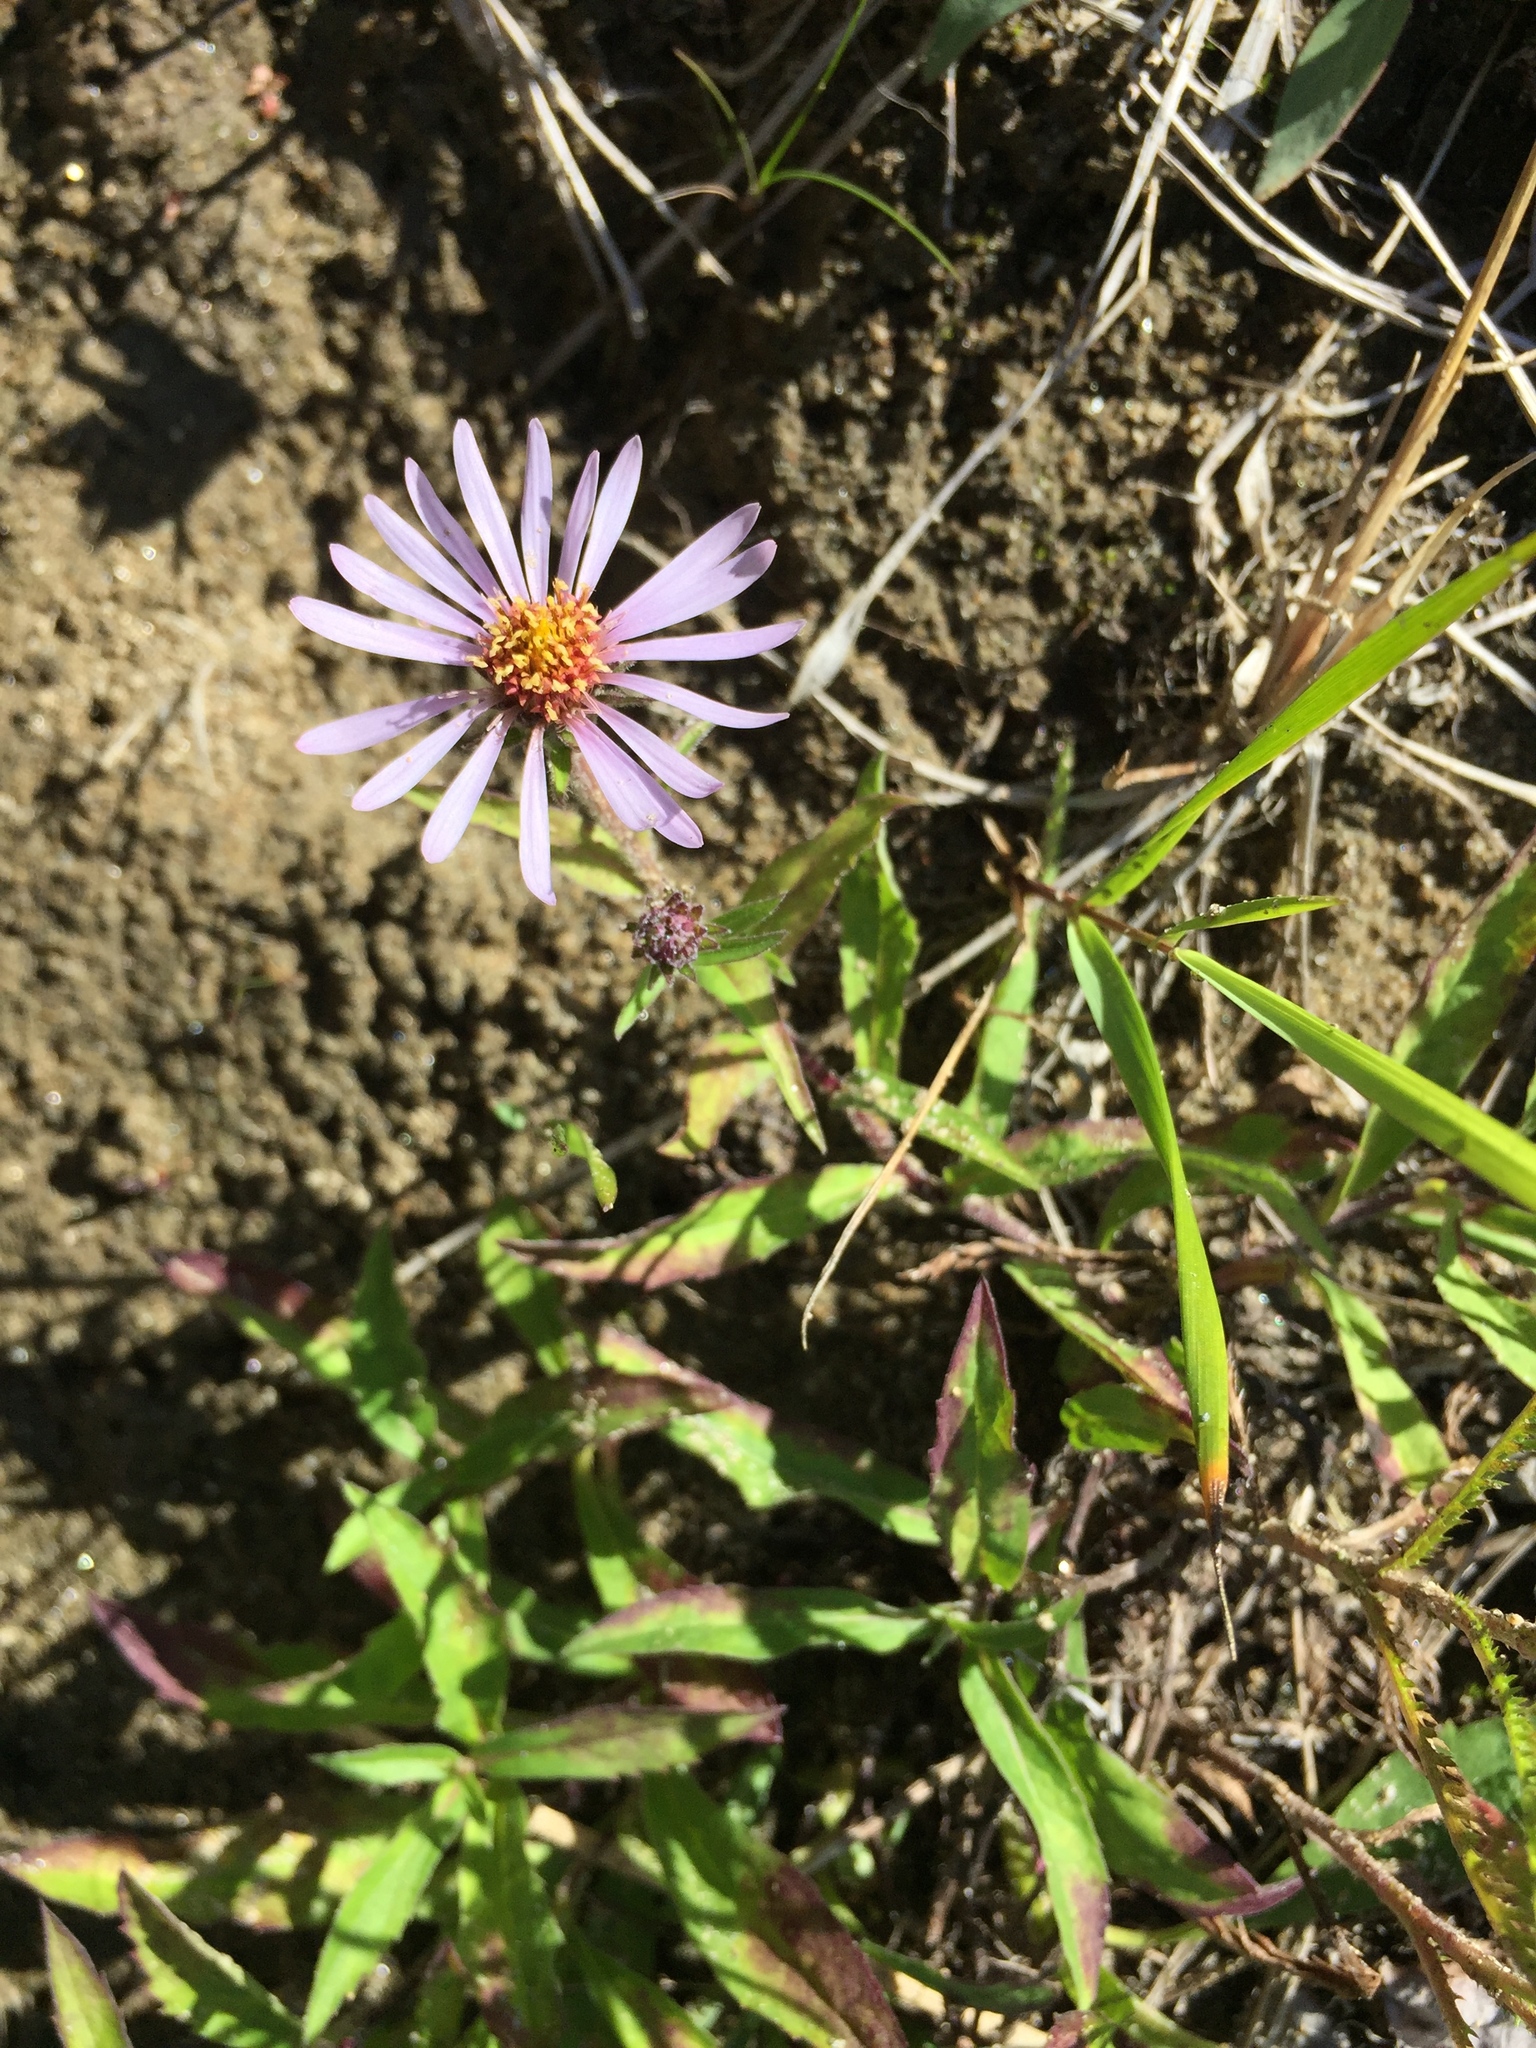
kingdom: Plantae
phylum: Tracheophyta
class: Magnoliopsida
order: Asterales
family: Asteraceae
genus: Eurybia
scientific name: Eurybia sibirica
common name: Arctic aster
